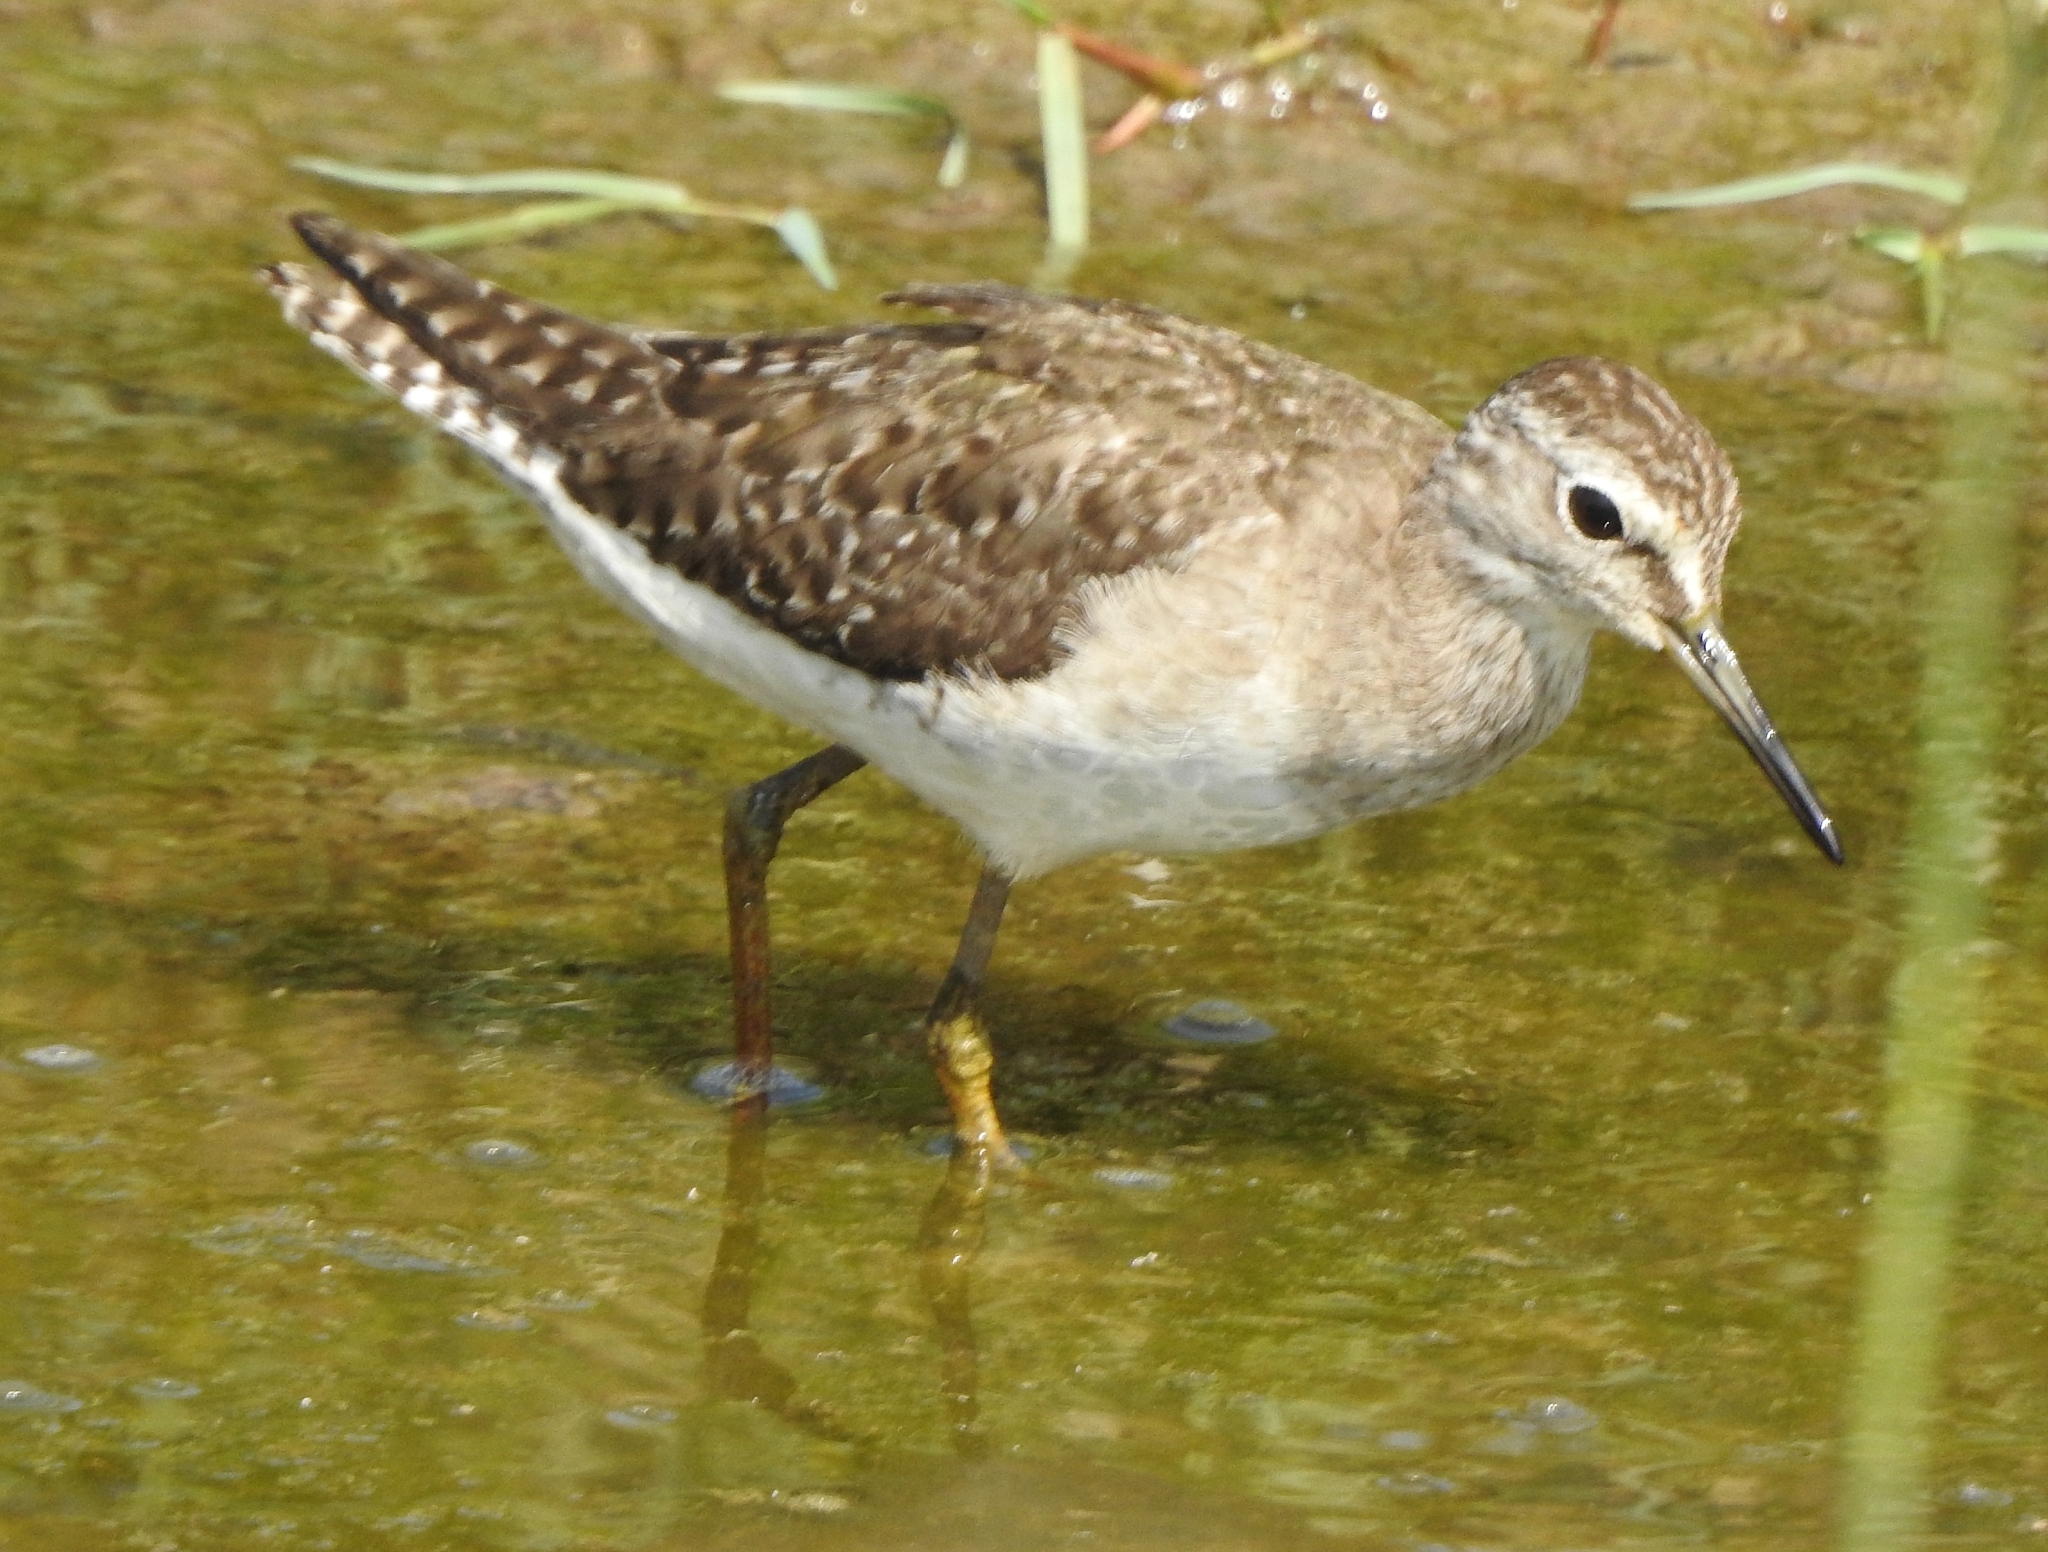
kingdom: Animalia
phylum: Chordata
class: Aves
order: Charadriiformes
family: Scolopacidae
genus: Tringa
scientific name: Tringa glareola
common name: Wood sandpiper
